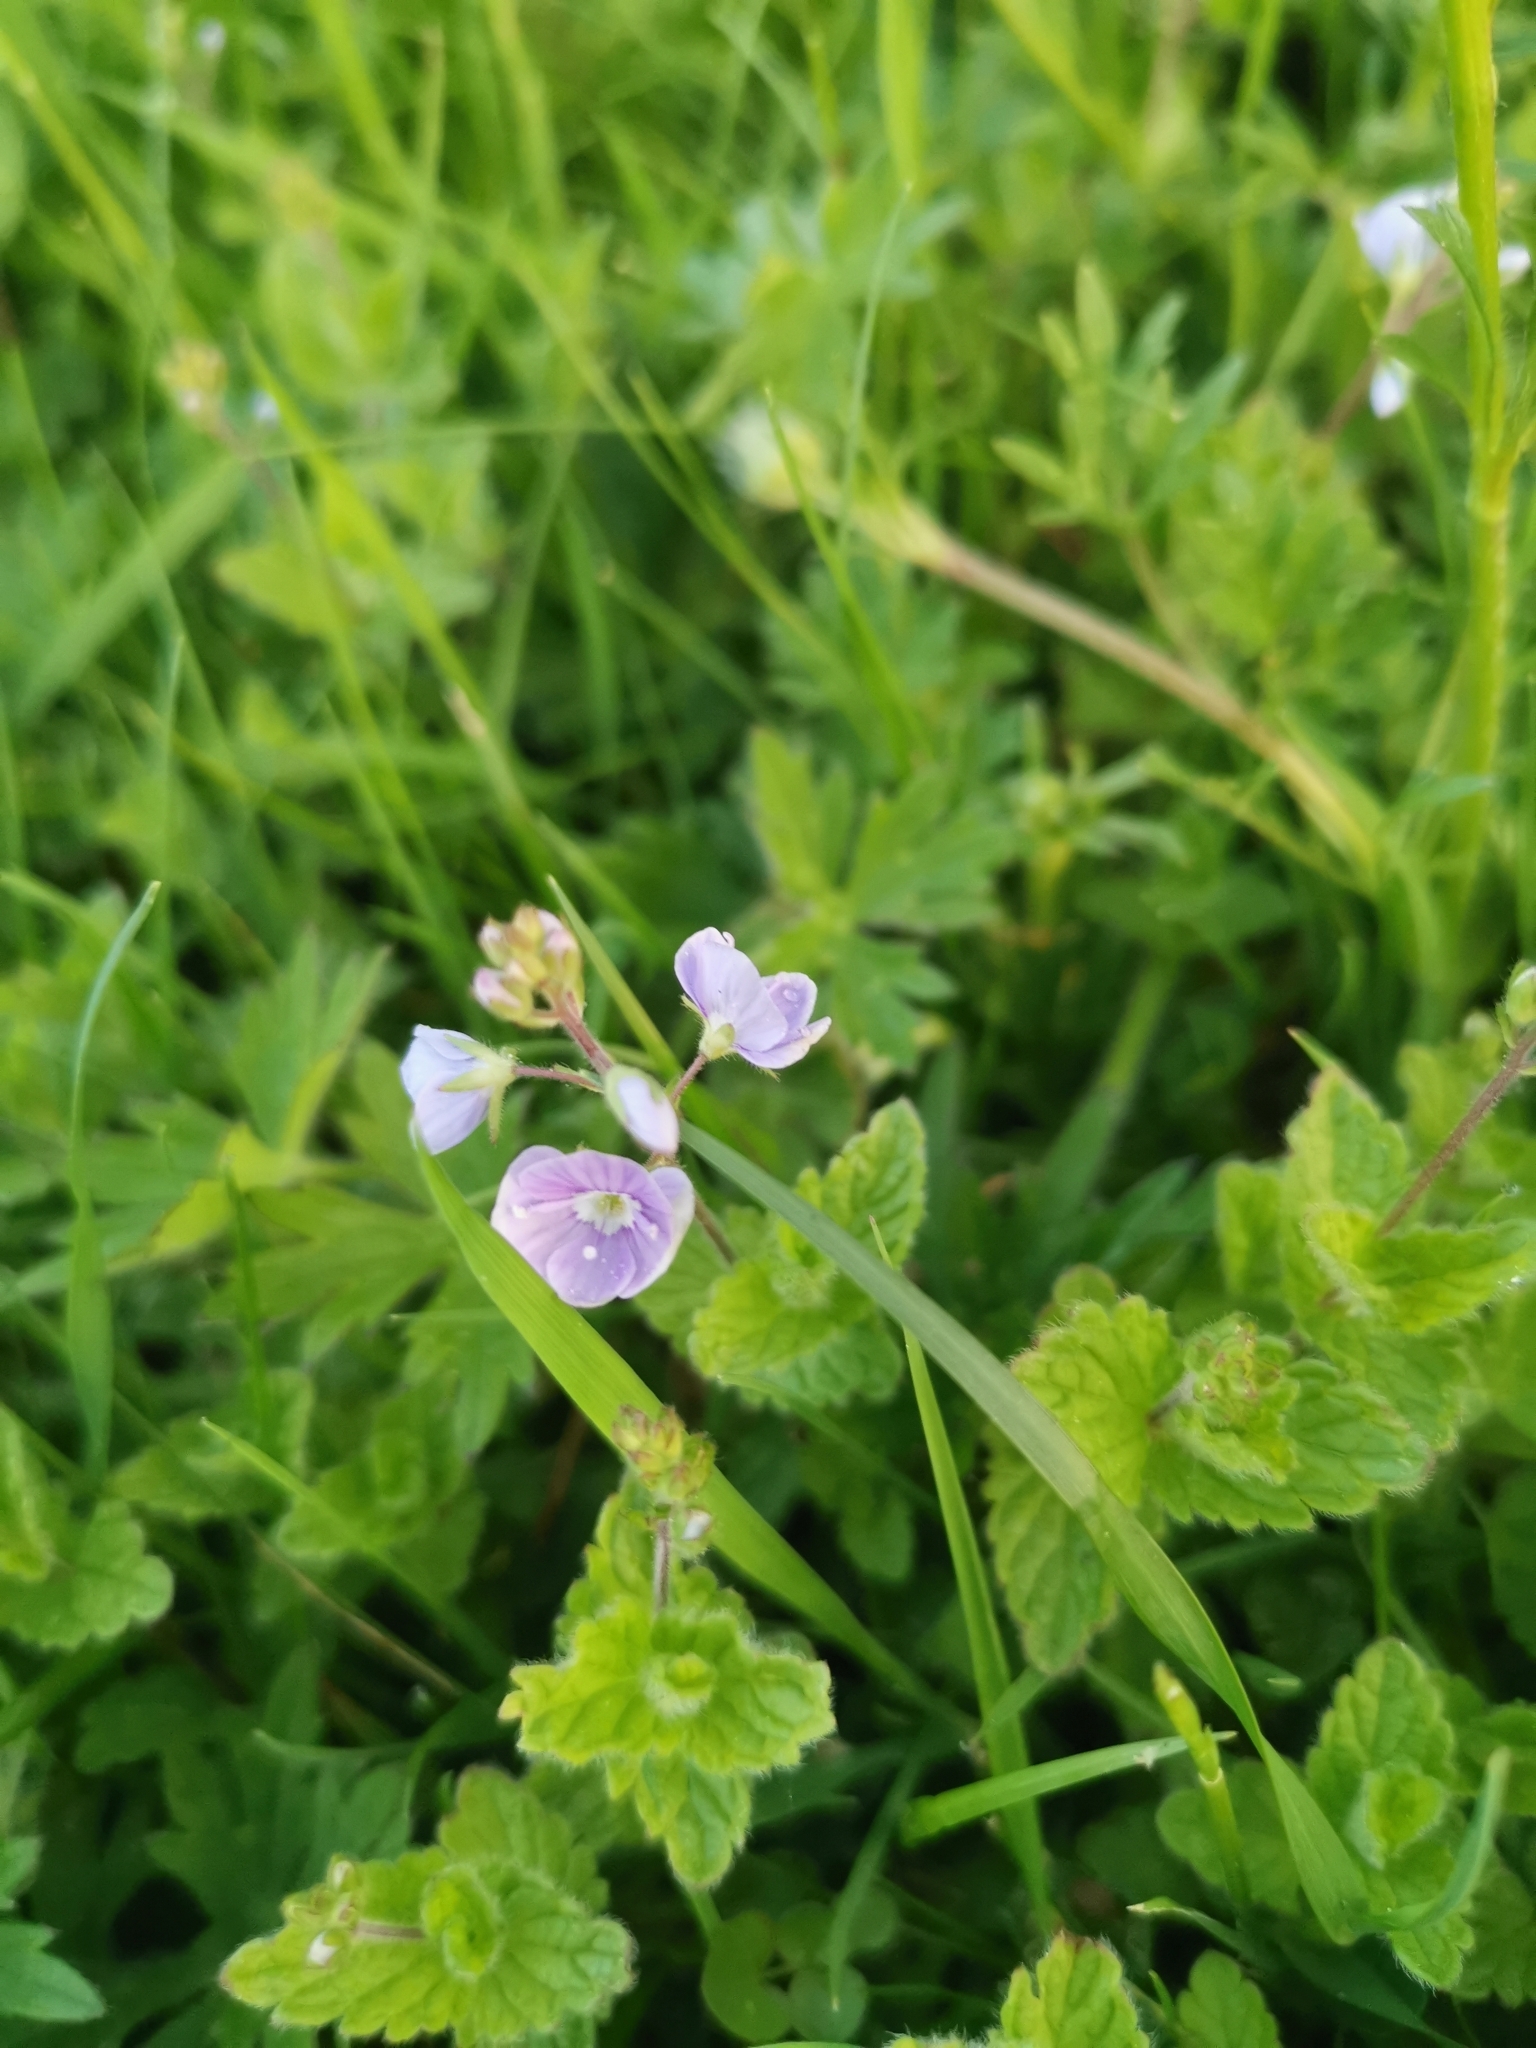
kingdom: Plantae
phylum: Tracheophyta
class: Magnoliopsida
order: Lamiales
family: Plantaginaceae
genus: Veronica
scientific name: Veronica chamaedrys
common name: Germander speedwell
